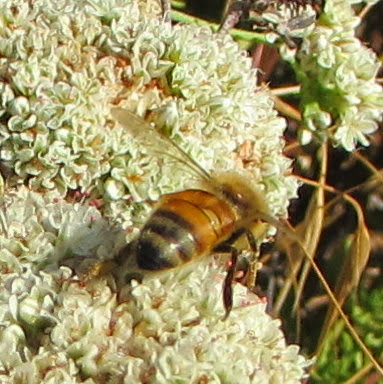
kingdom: Animalia
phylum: Arthropoda
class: Insecta
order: Hymenoptera
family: Apidae
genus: Apis
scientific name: Apis mellifera
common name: Honey bee
